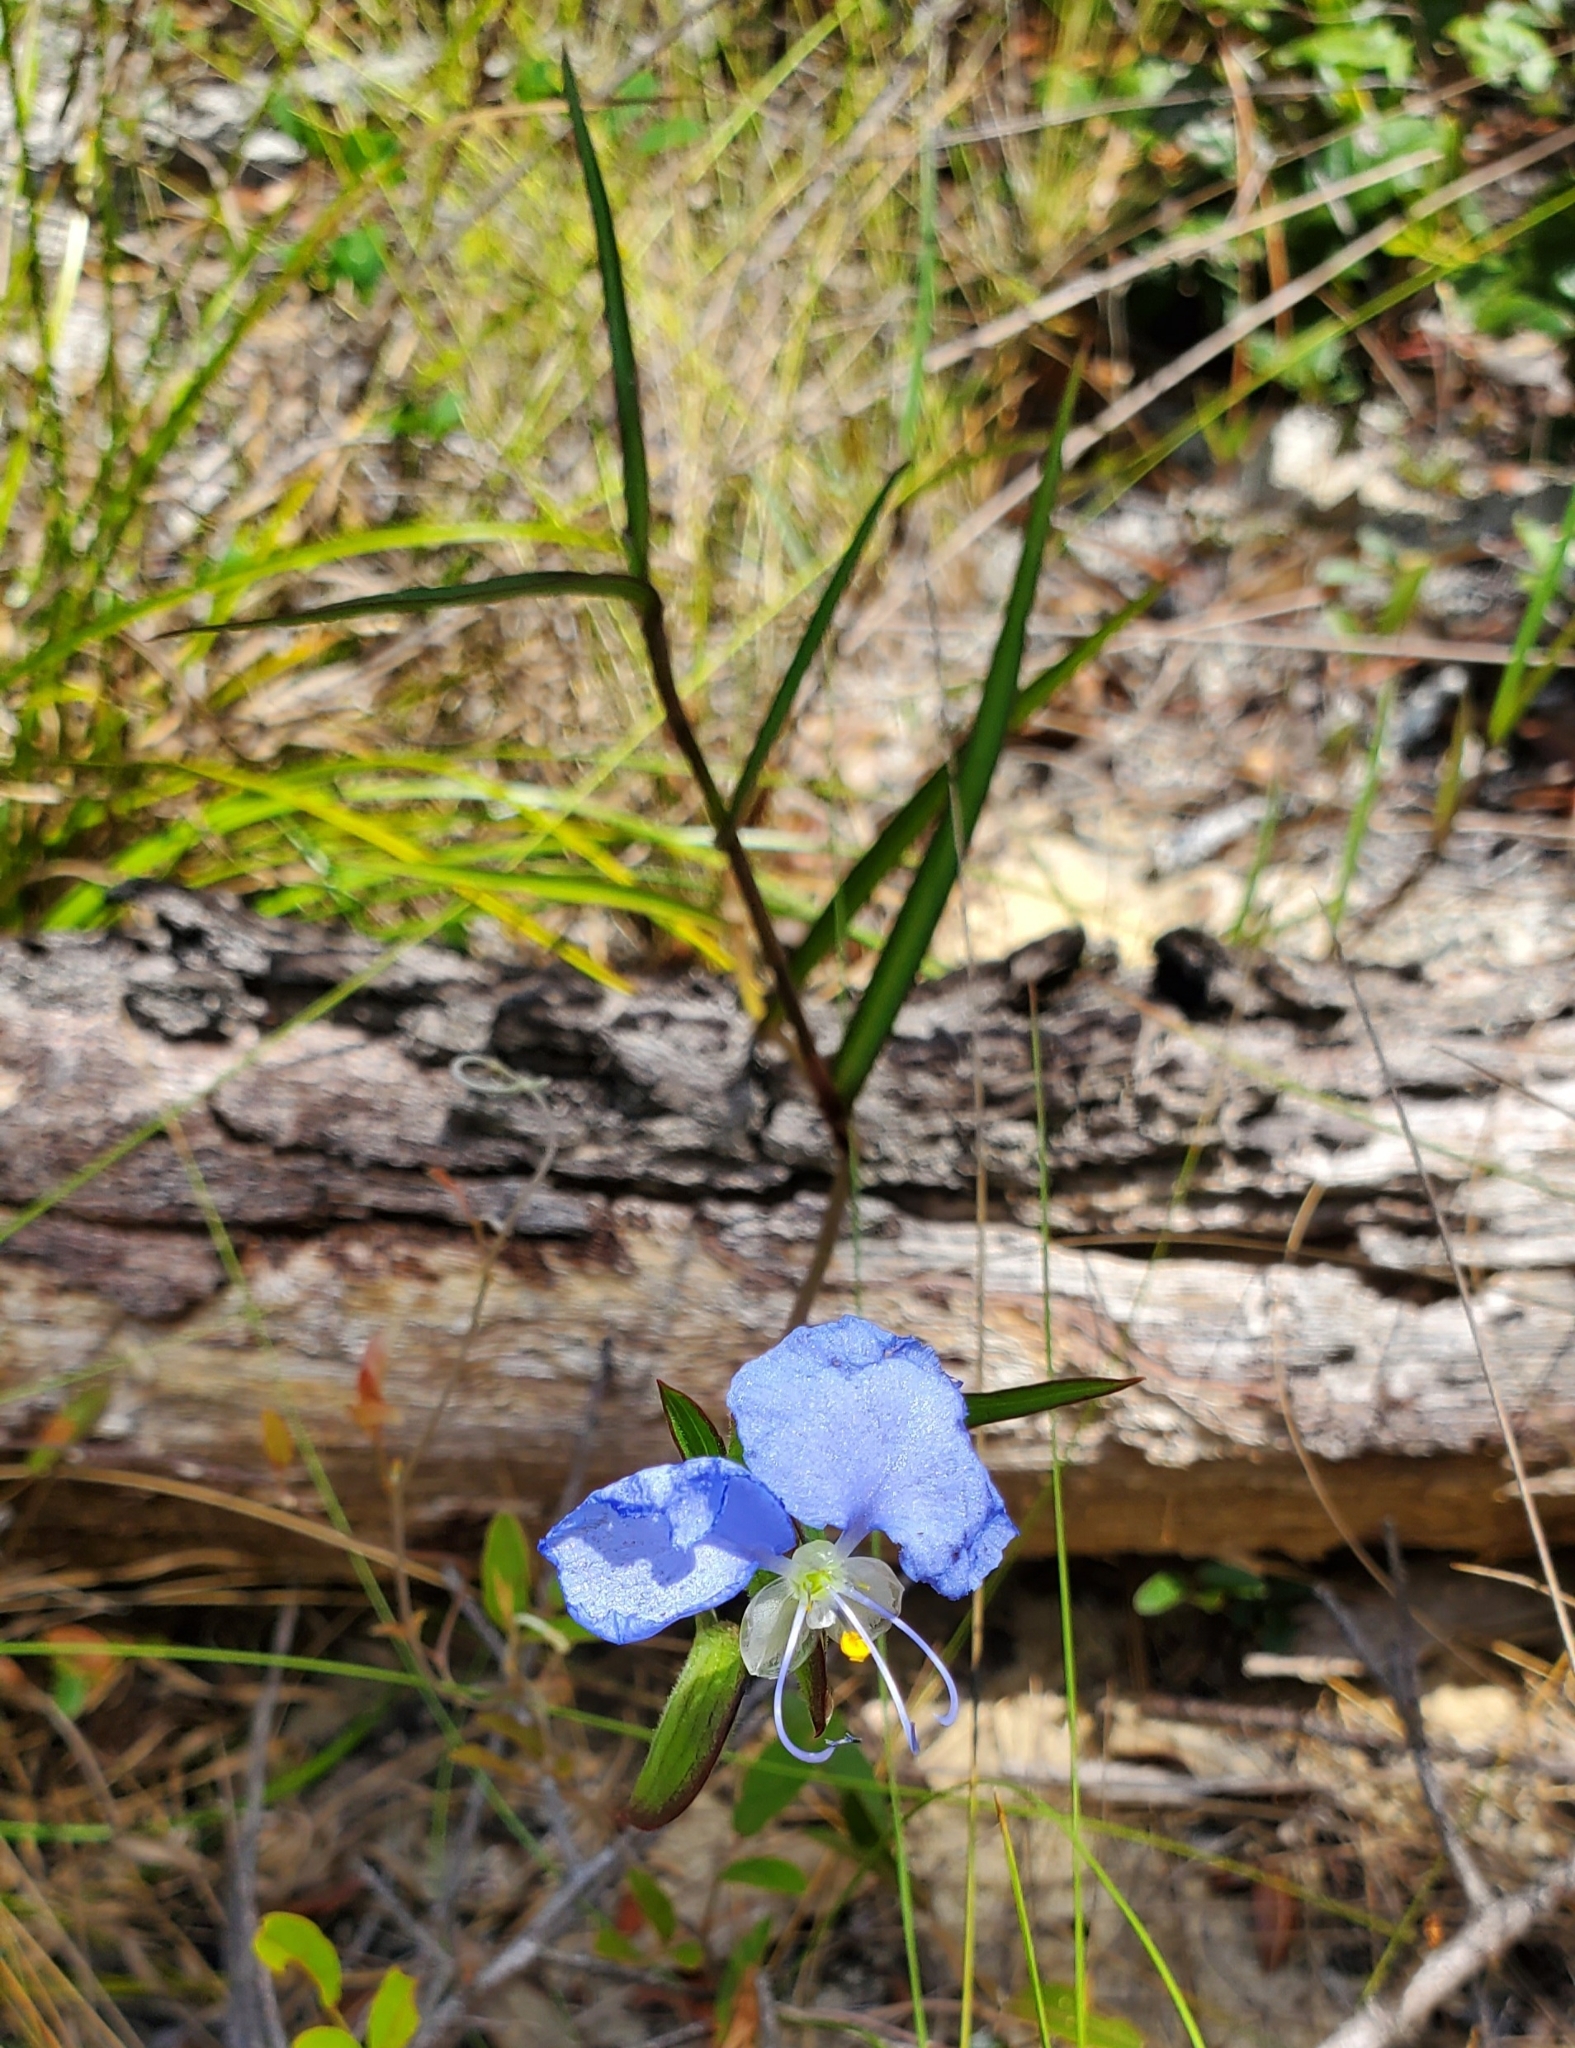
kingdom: Plantae
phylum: Tracheophyta
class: Liliopsida
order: Commelinales
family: Commelinaceae
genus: Commelina
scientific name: Commelina erecta
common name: Blousel blommetjie
